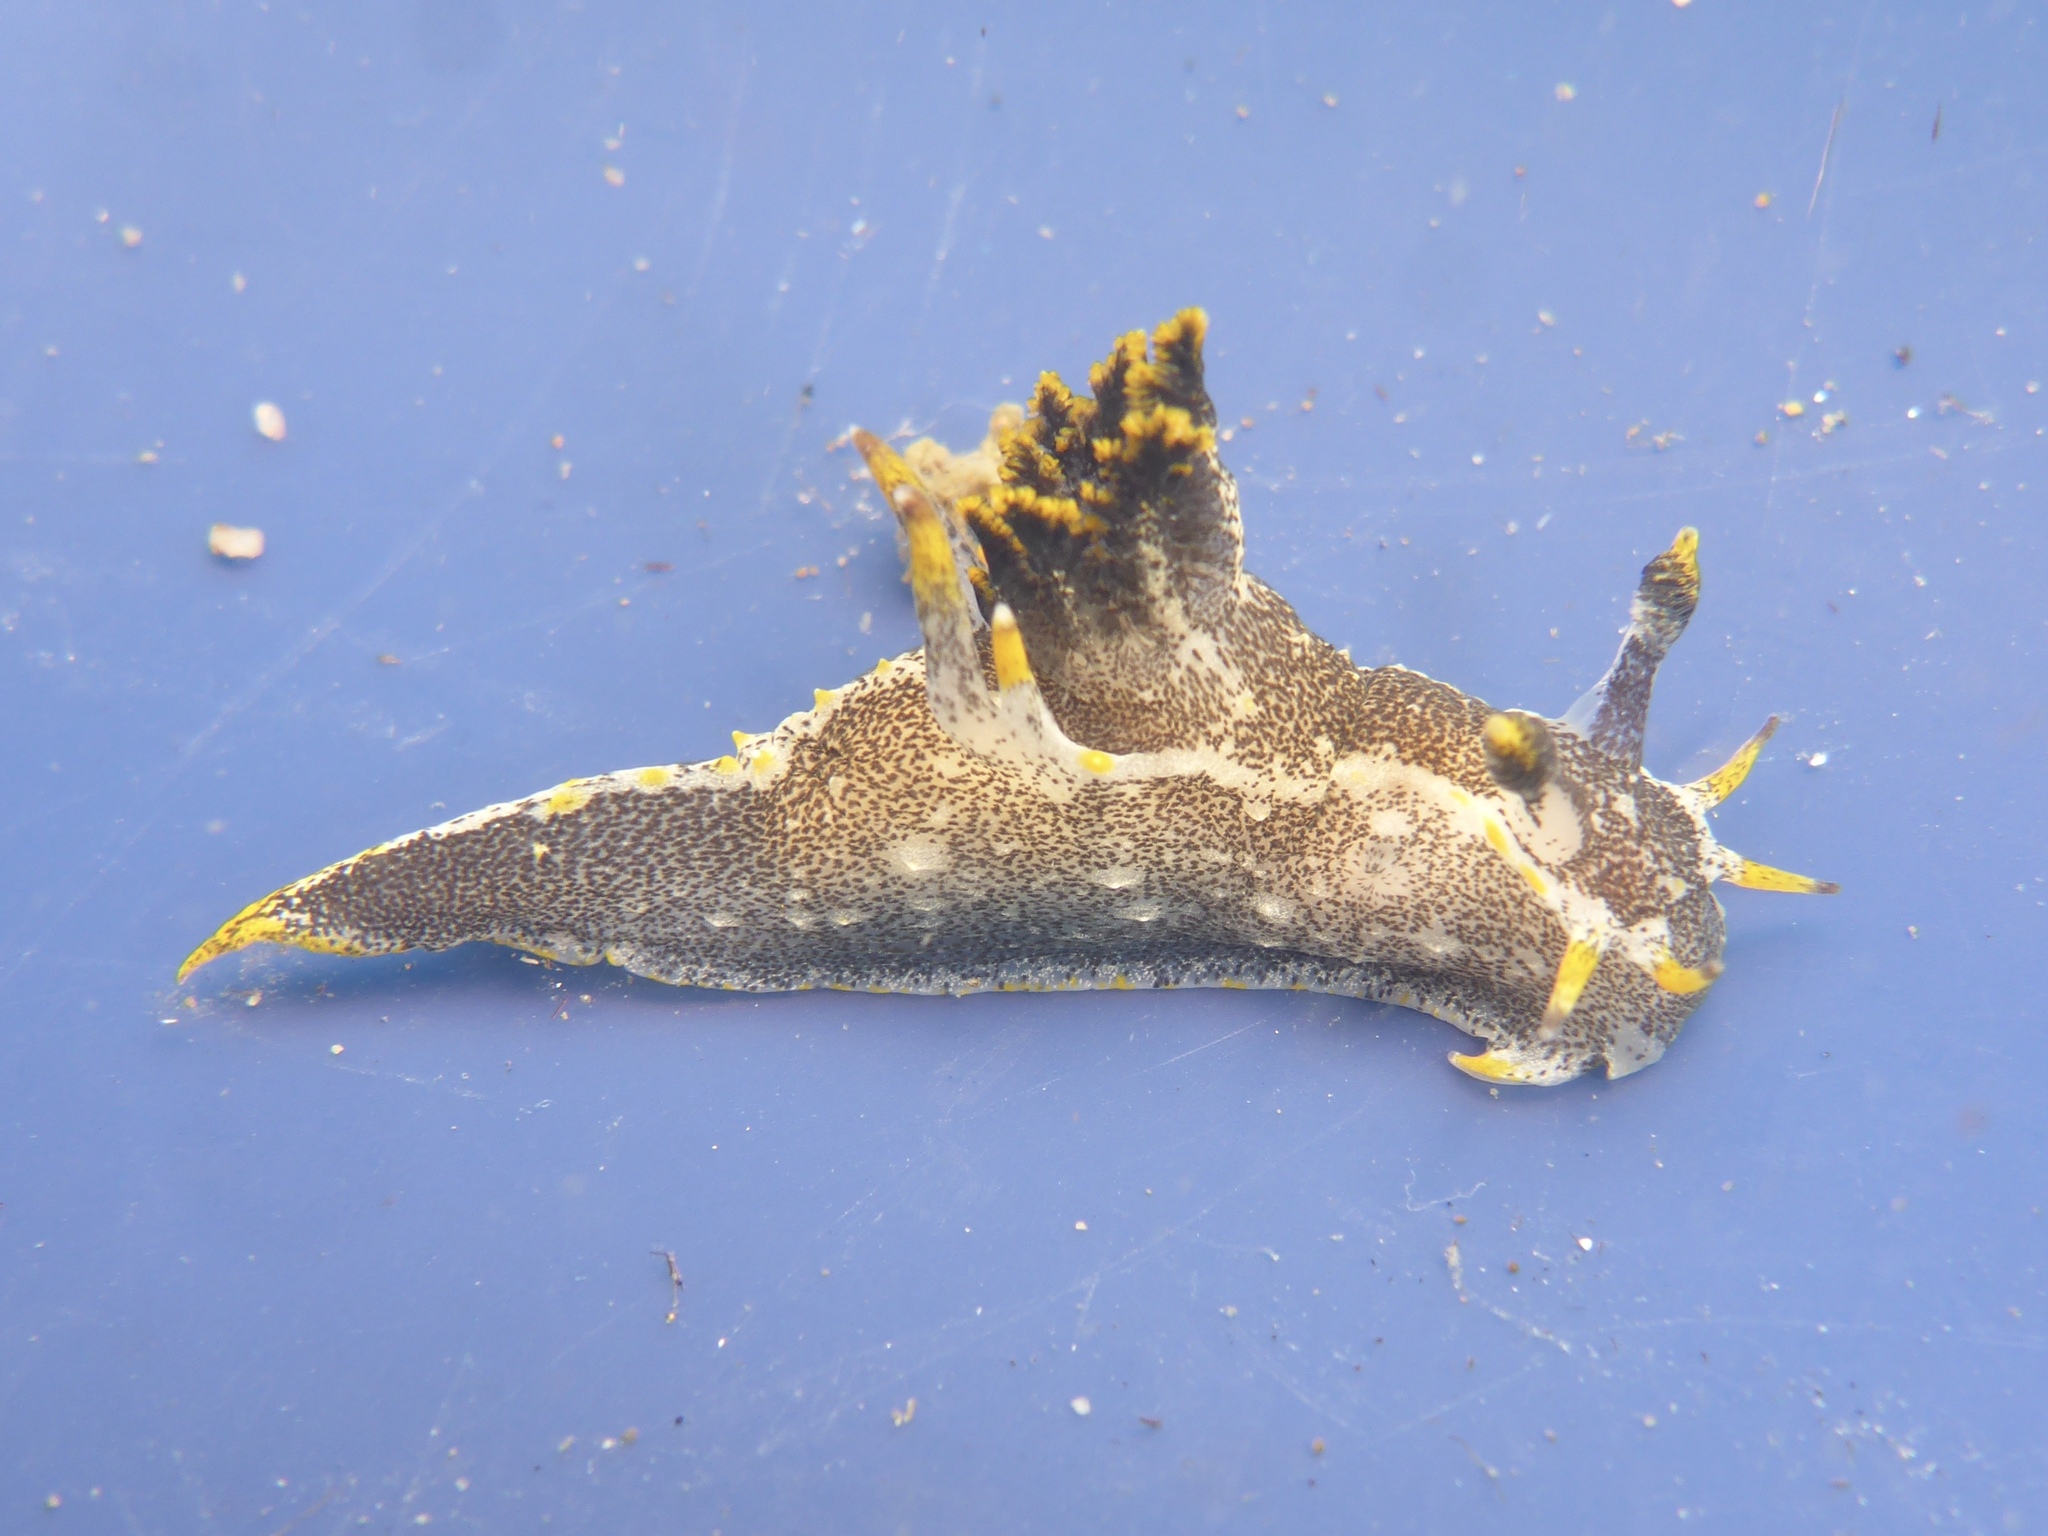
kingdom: Animalia
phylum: Mollusca
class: Gastropoda
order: Nudibranchia
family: Polyceridae
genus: Polycera
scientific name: Polycera hedgpethi
